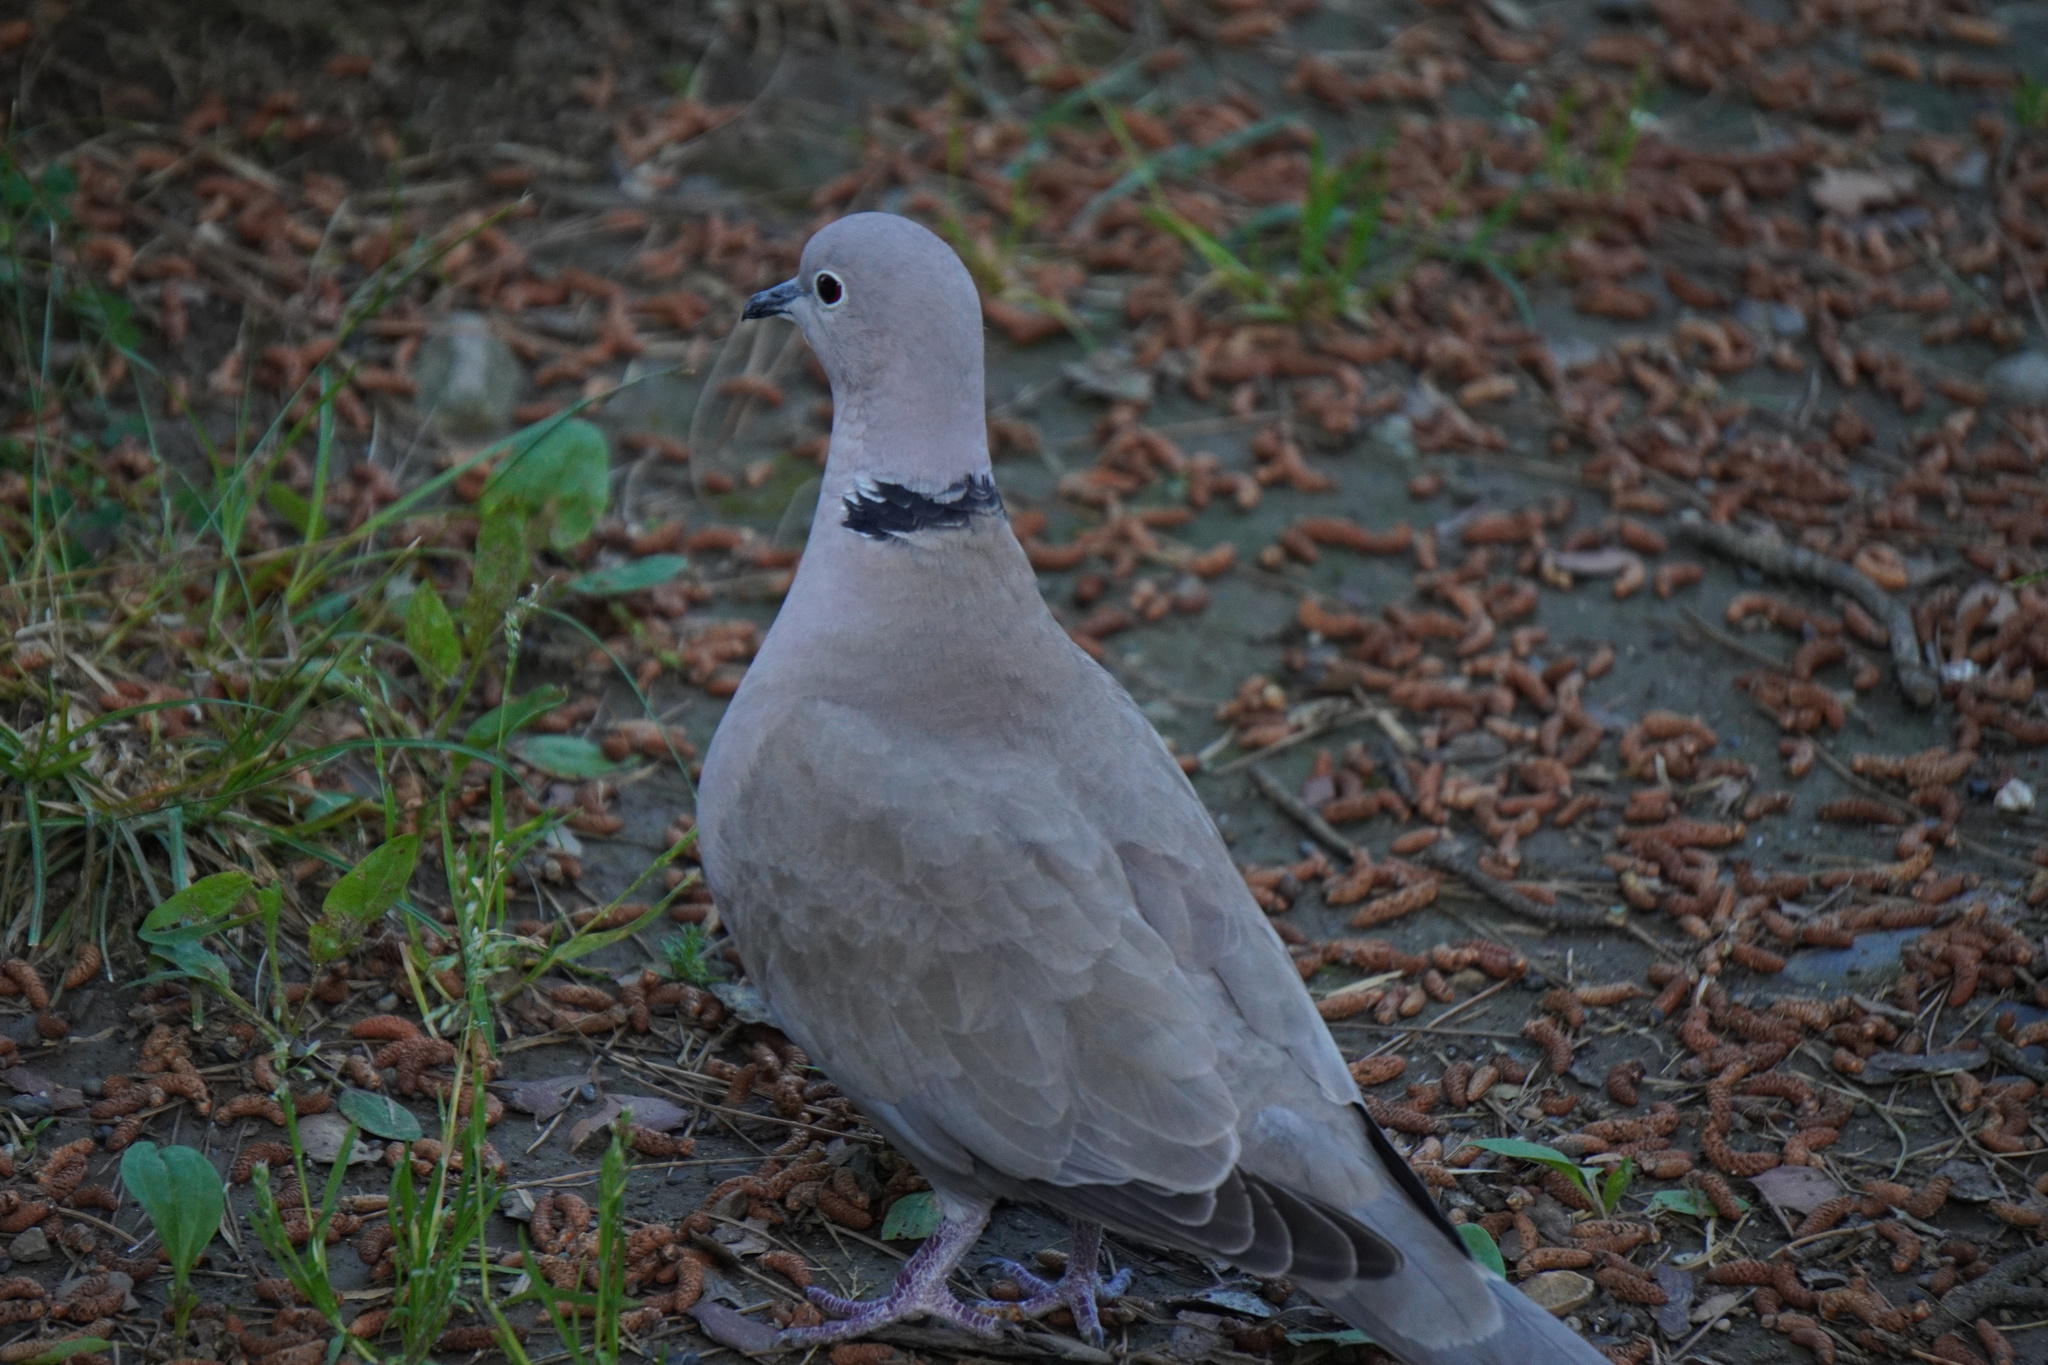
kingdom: Animalia
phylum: Chordata
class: Aves
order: Columbiformes
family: Columbidae
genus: Streptopelia
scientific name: Streptopelia decaocto
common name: Eurasian collared dove
